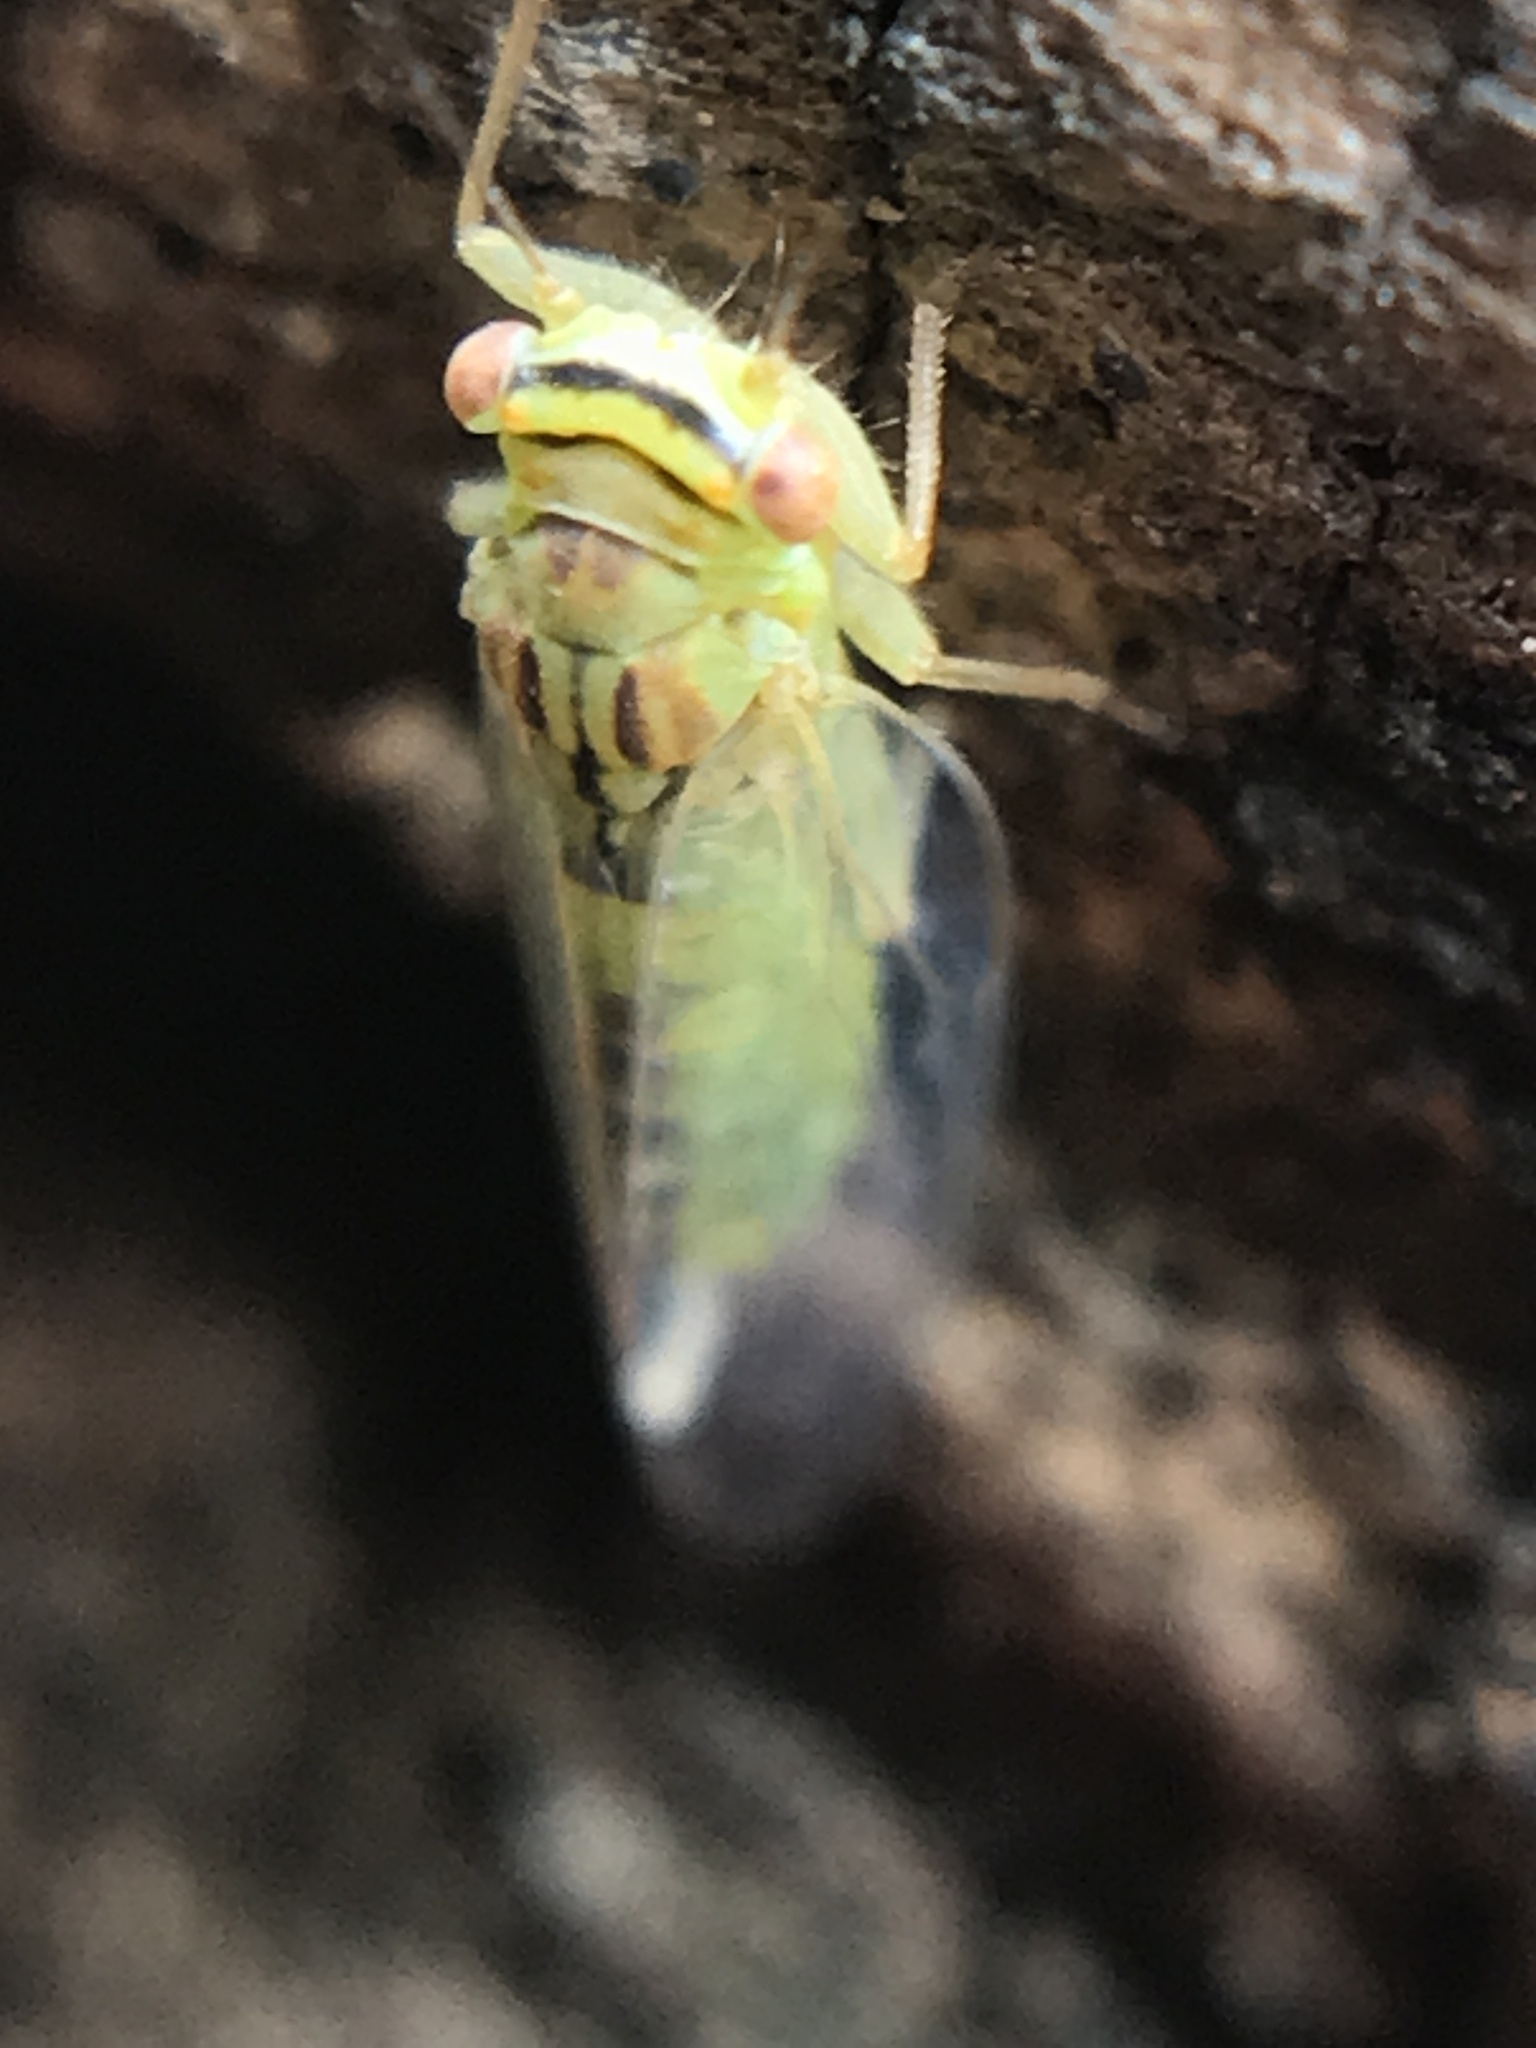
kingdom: Animalia
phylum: Arthropoda
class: Insecta
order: Hemiptera
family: Psyllidae
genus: Platycorypha
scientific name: Platycorypha nigrivirga
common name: Tipu psyllid
